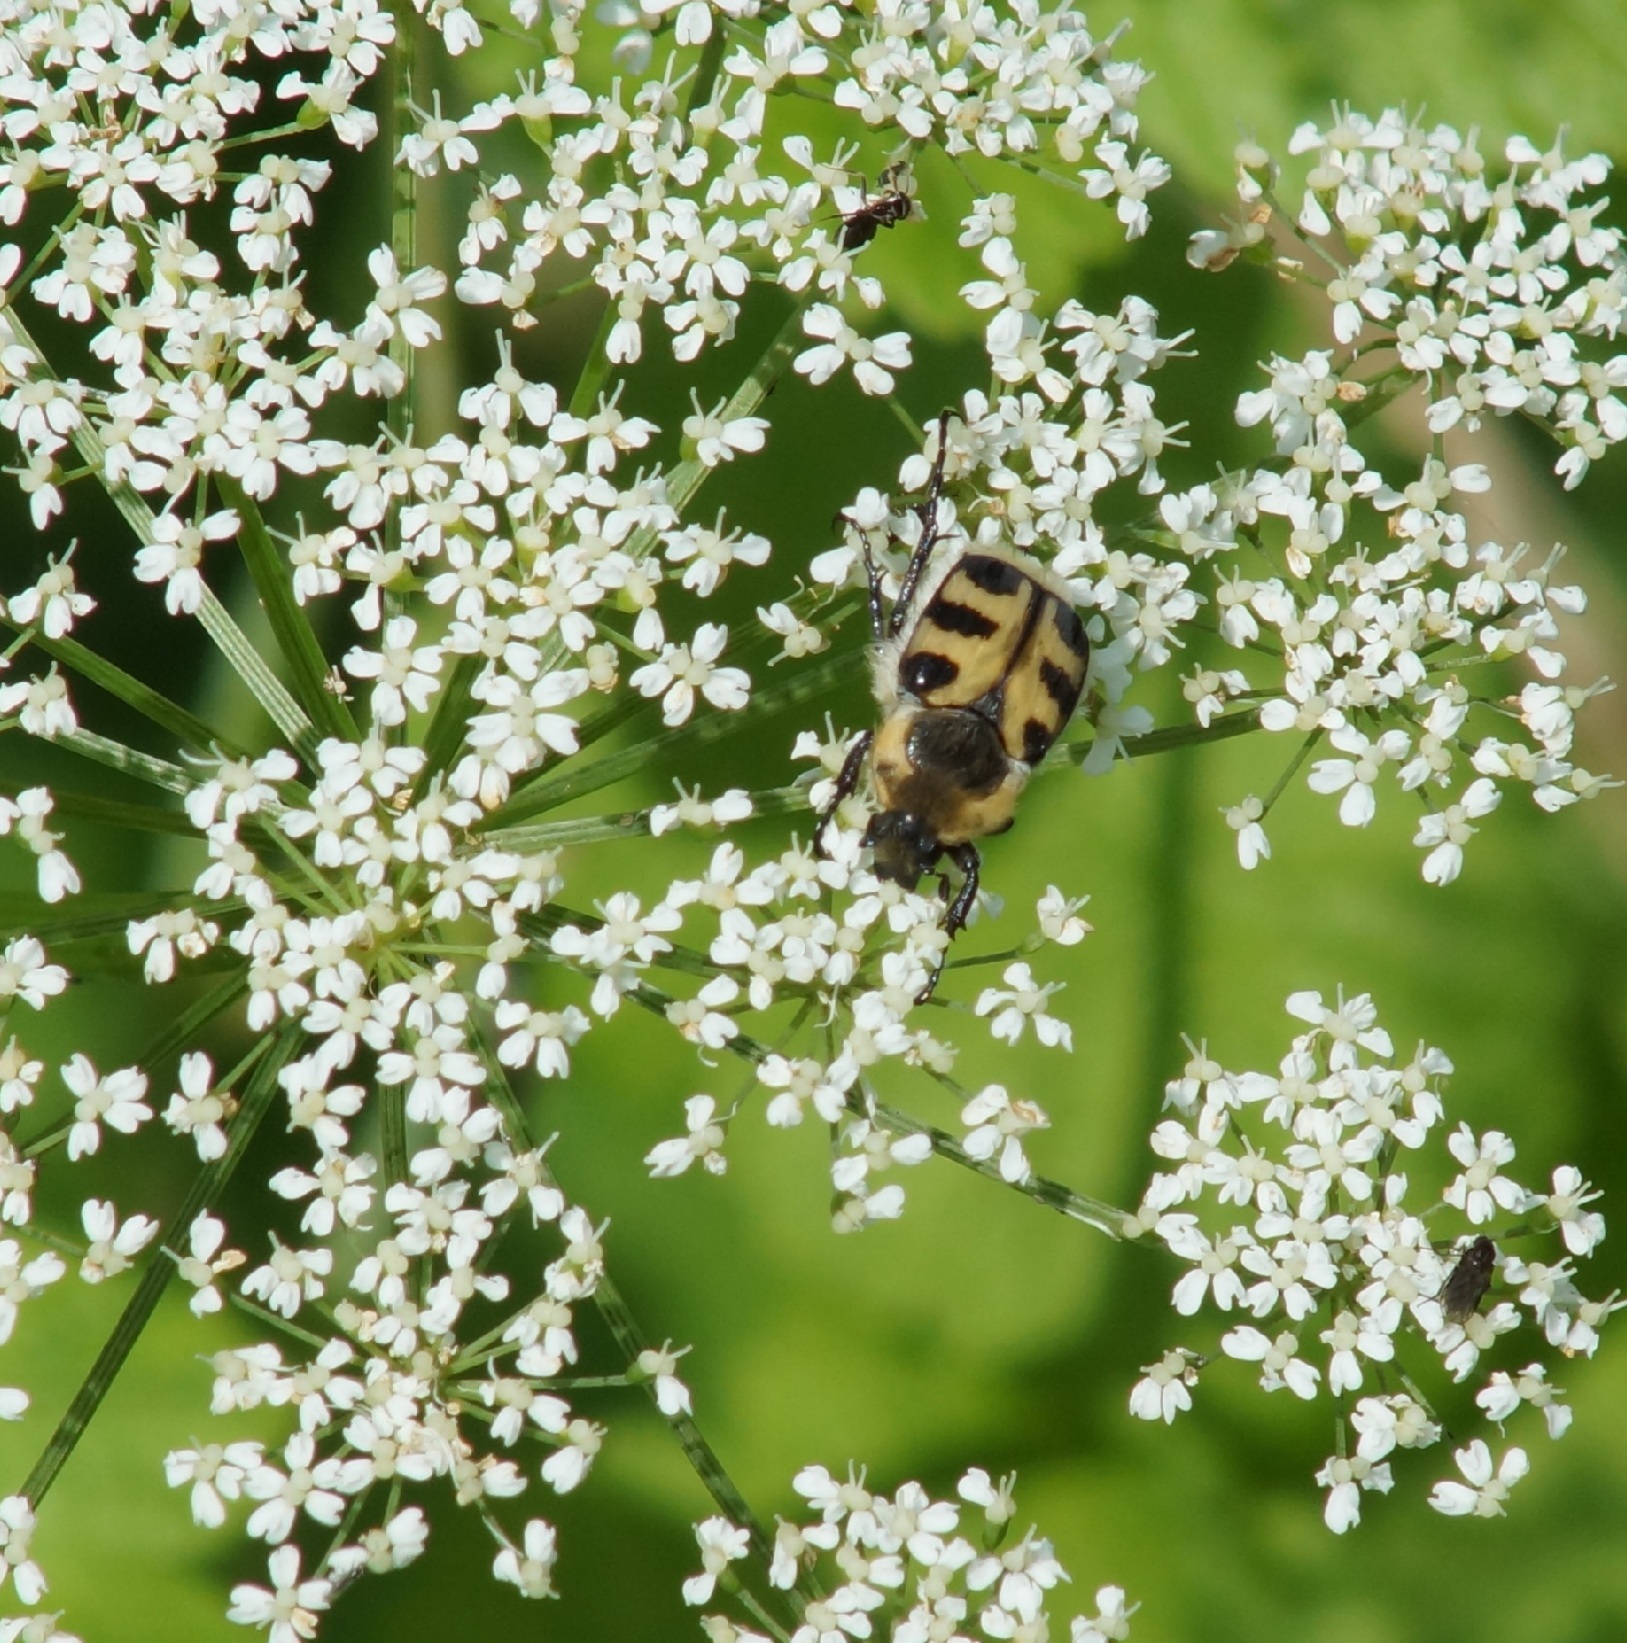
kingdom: Animalia
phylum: Arthropoda
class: Insecta
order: Coleoptera
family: Scarabaeidae
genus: Trichius
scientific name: Trichius gallicus
